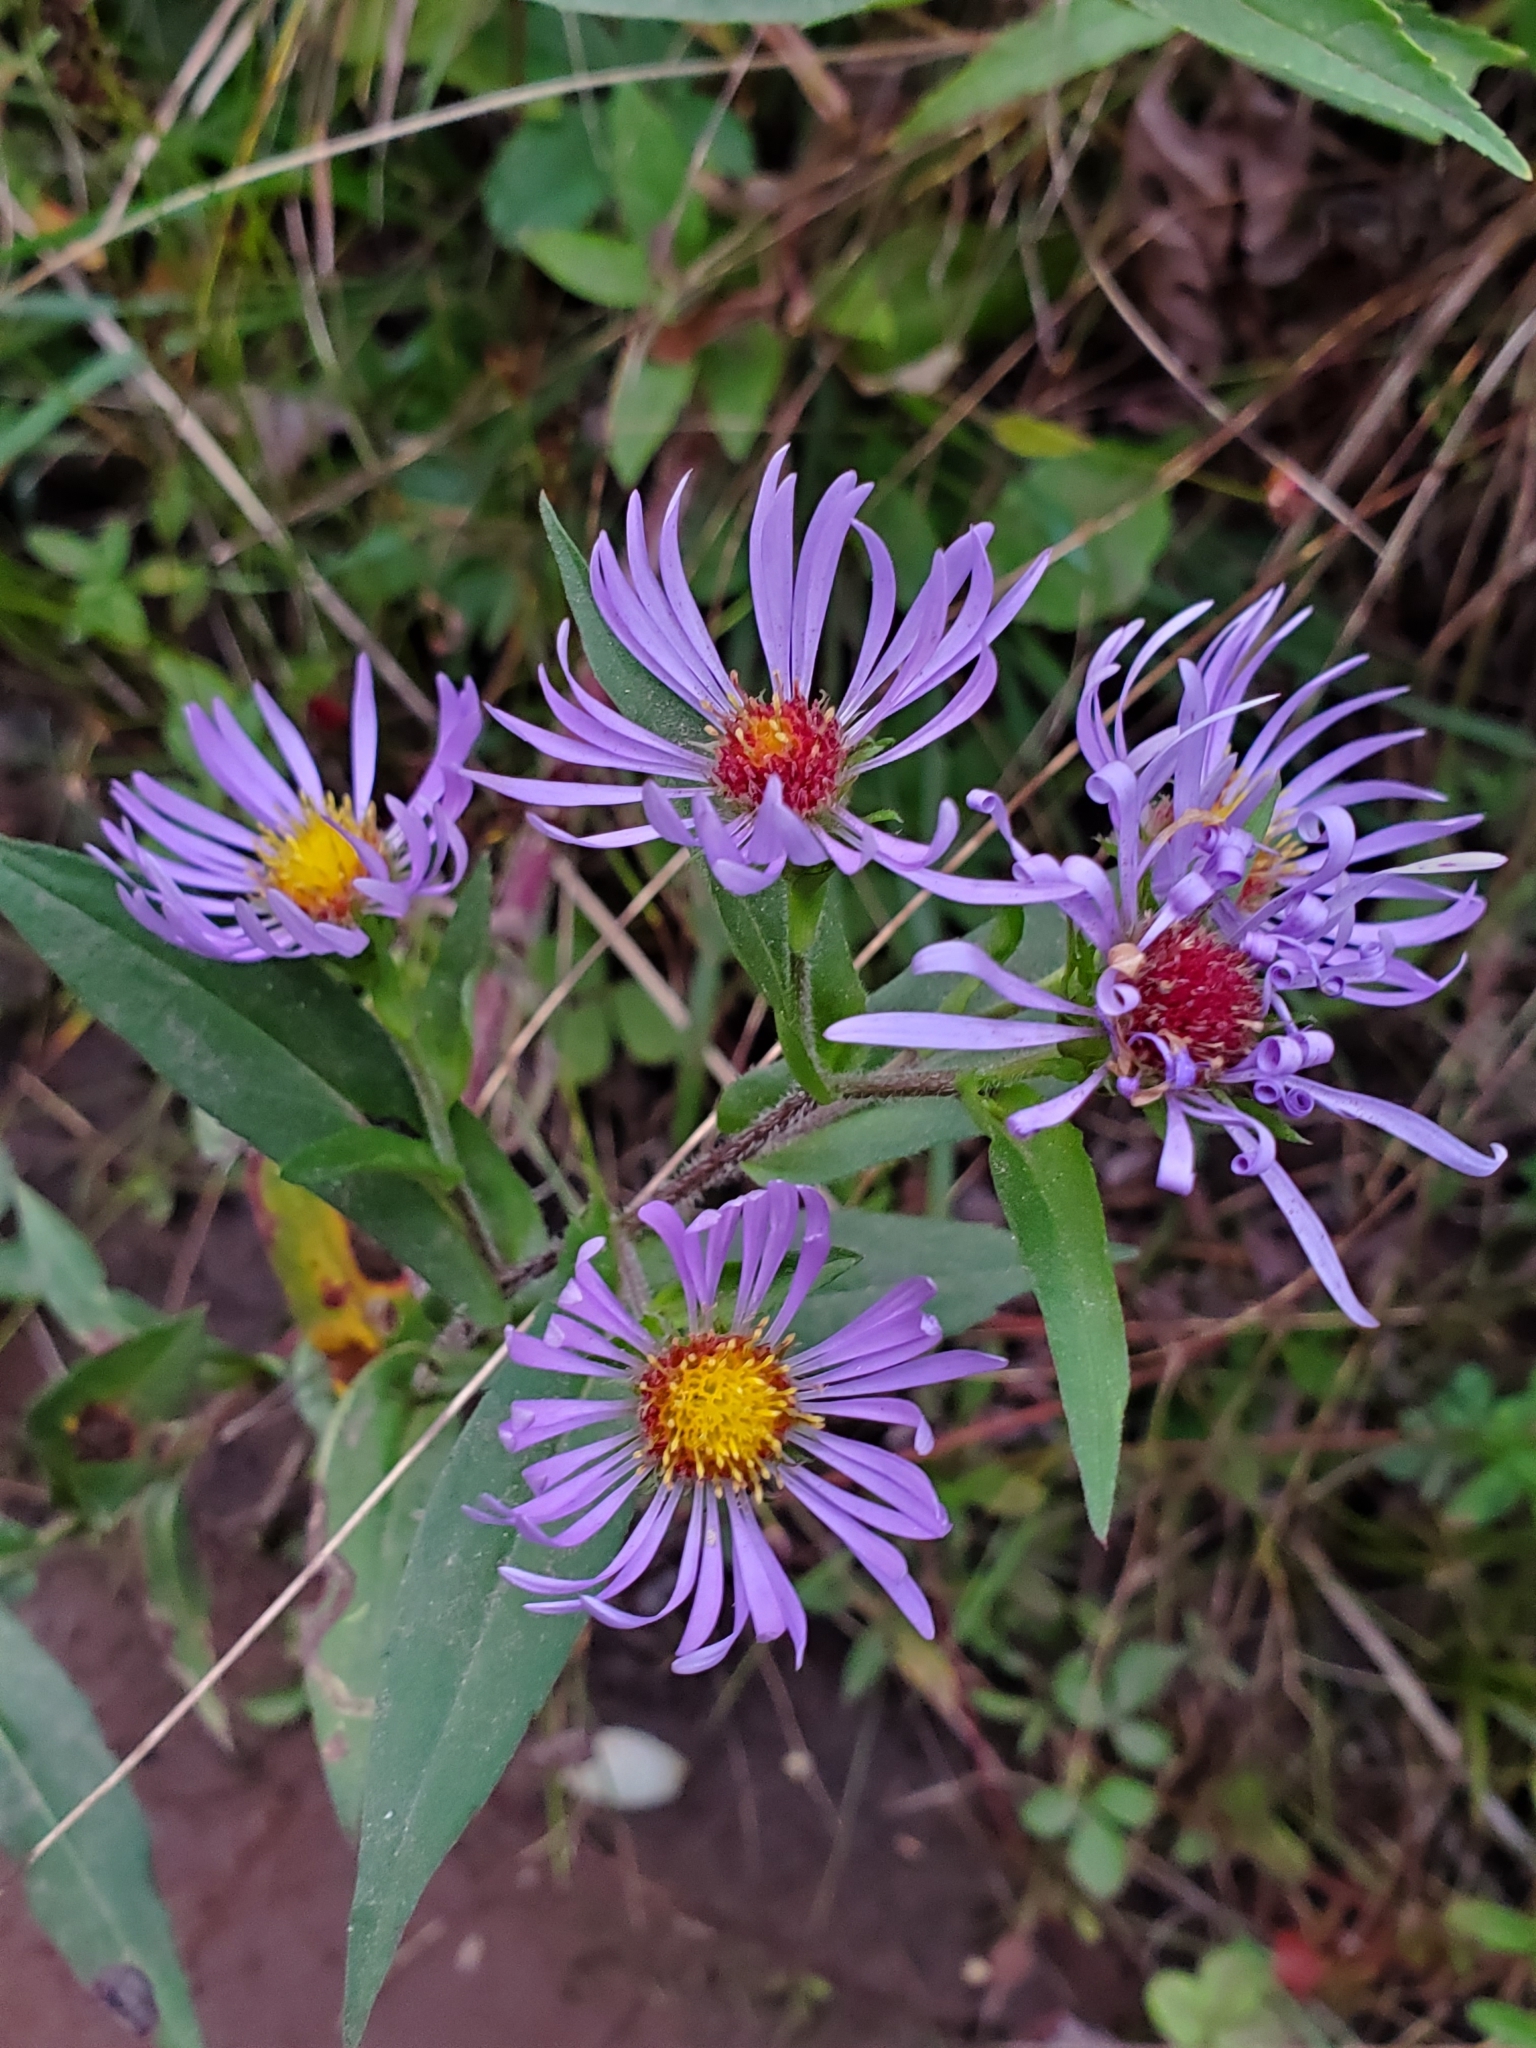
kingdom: Plantae
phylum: Tracheophyta
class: Magnoliopsida
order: Asterales
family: Asteraceae
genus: Symphyotrichum
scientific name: Symphyotrichum novae-angliae
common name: Michaelmas daisy
